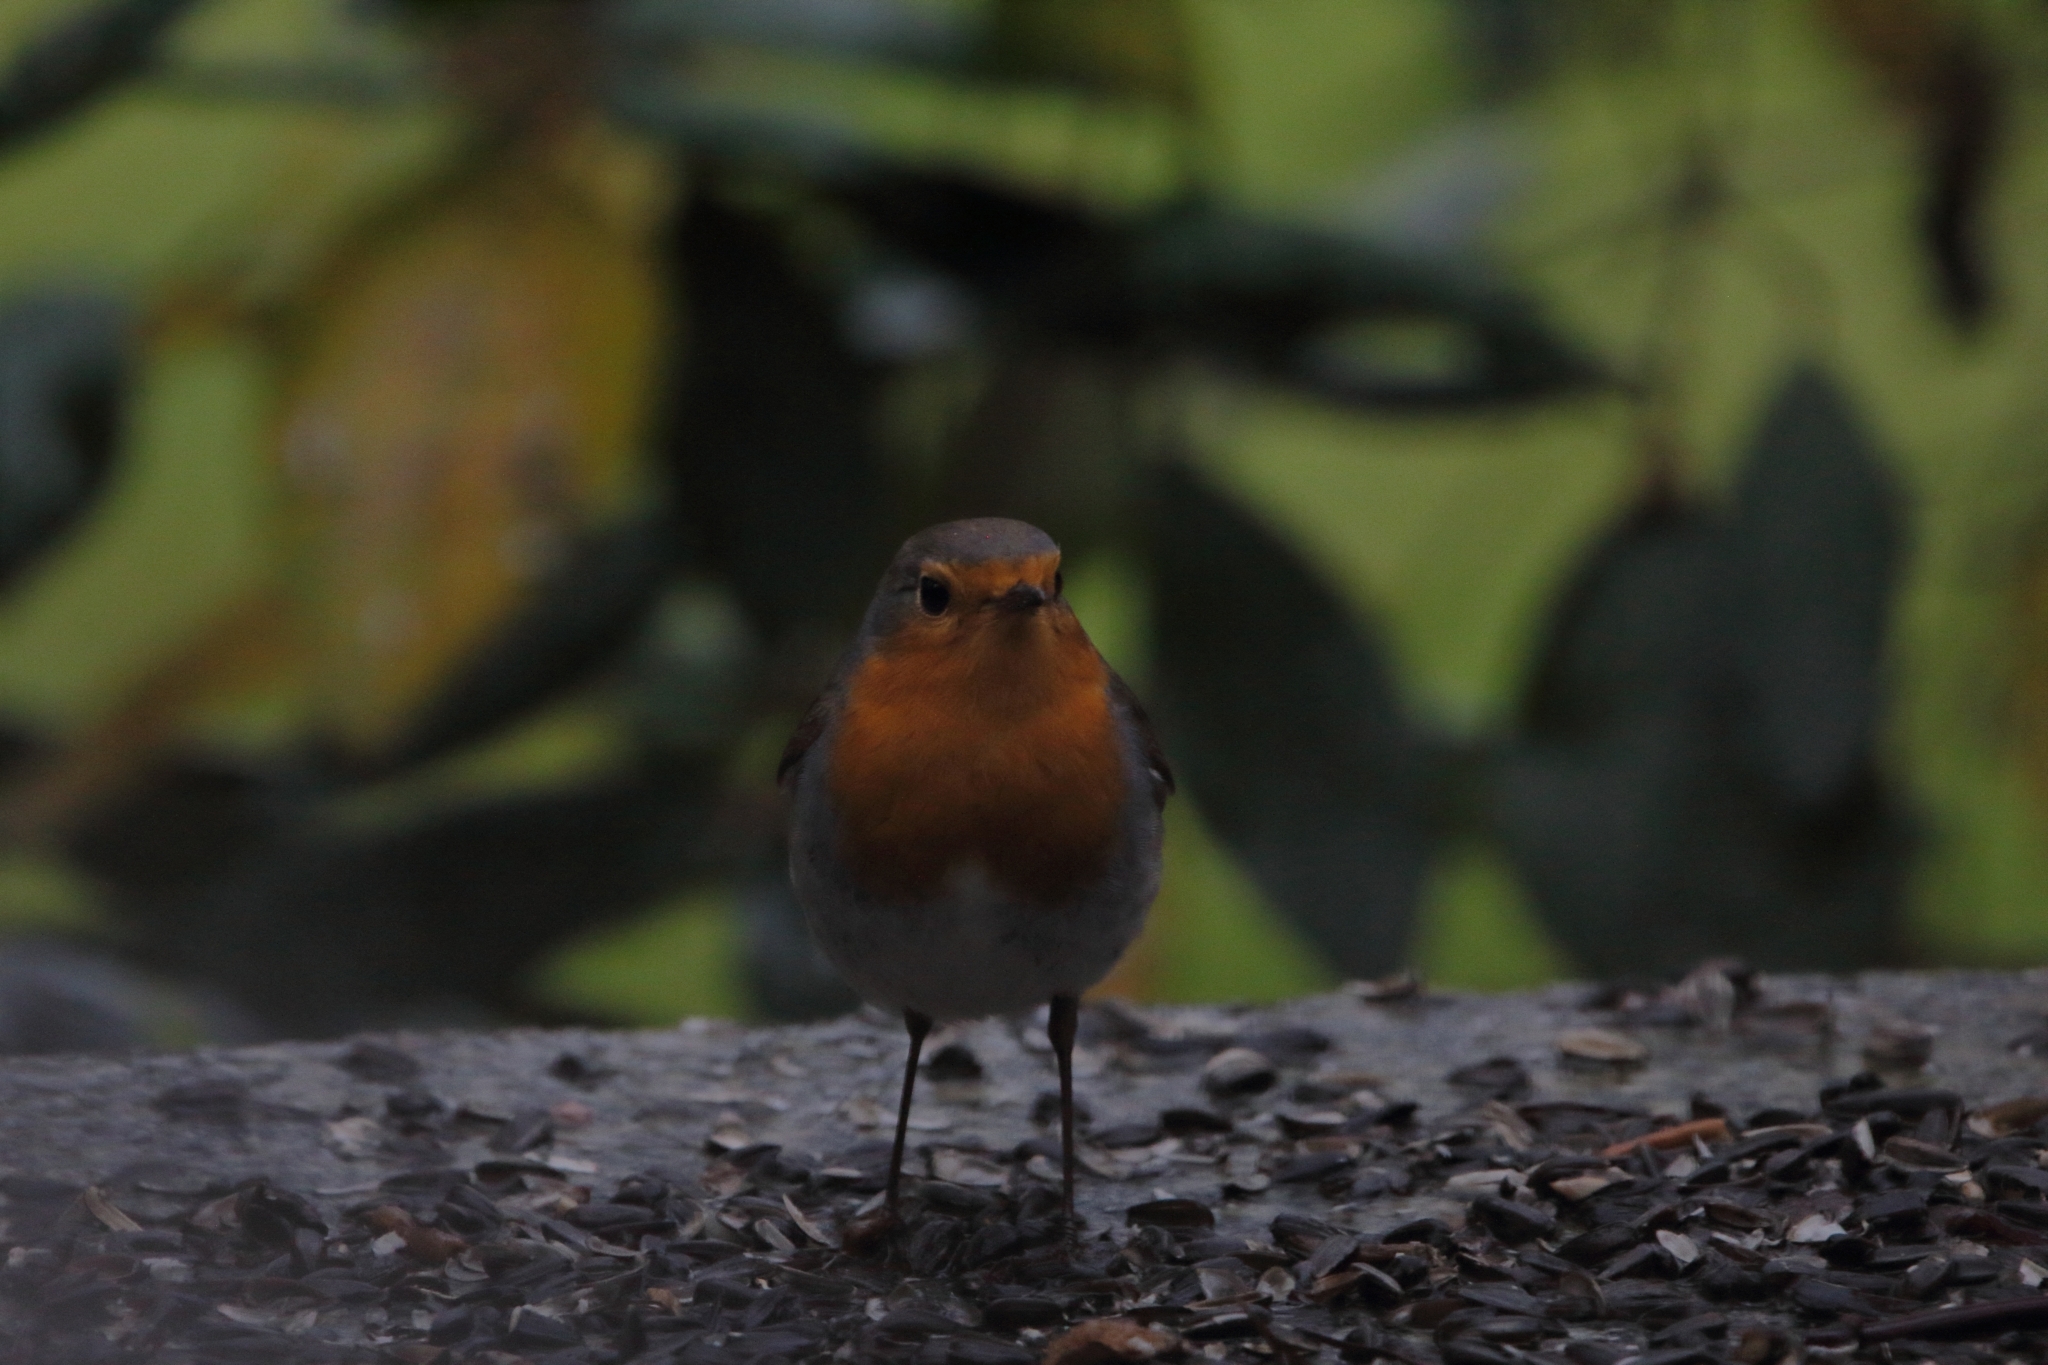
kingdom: Animalia
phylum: Chordata
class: Aves
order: Passeriformes
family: Muscicapidae
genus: Erithacus
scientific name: Erithacus rubecula
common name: European robin
